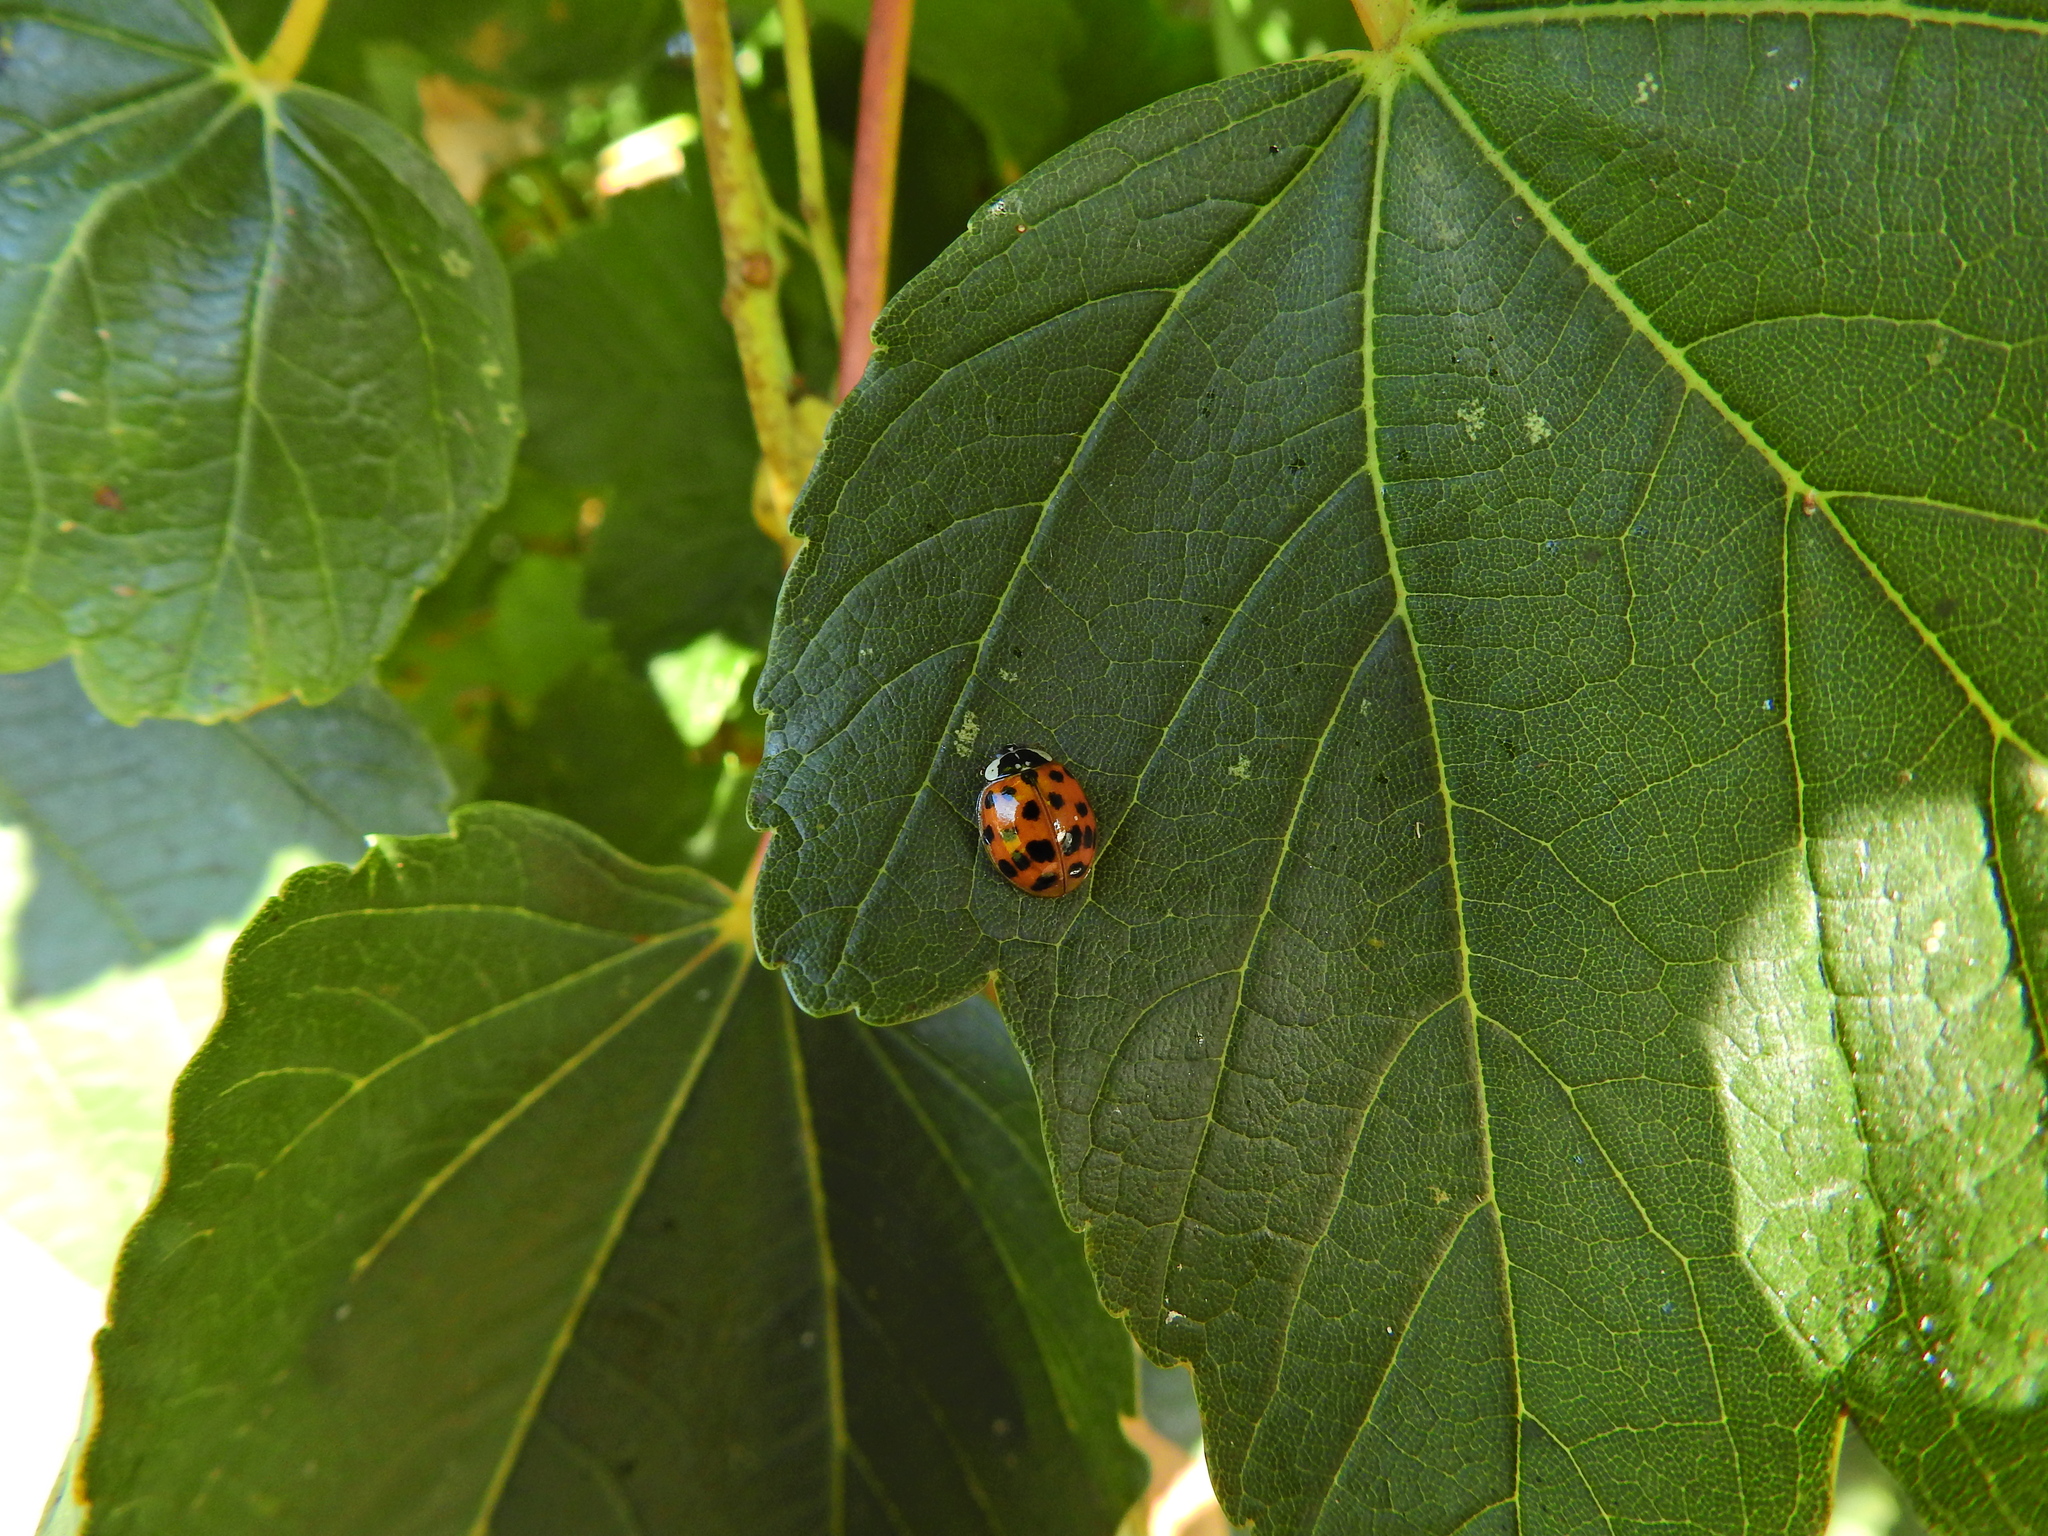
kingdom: Animalia
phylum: Arthropoda
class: Insecta
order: Coleoptera
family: Coccinellidae
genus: Harmonia
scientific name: Harmonia axyridis
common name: Harlequin ladybird
